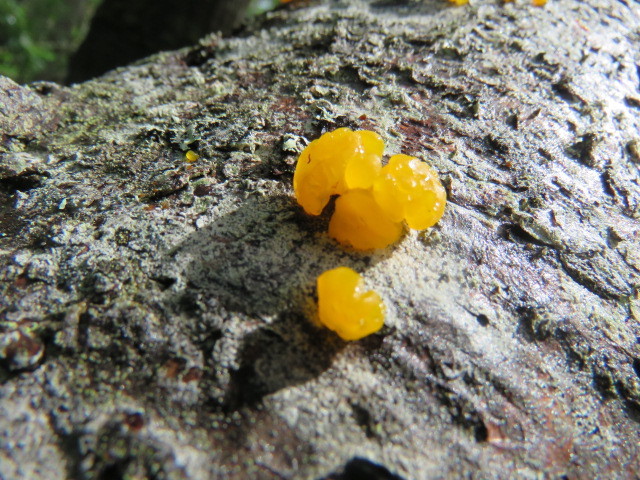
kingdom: Fungi
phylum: Basidiomycota
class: Dacrymycetes
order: Dacrymycetales
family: Dacrymycetaceae
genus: Dacrymyces
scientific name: Dacrymyces chrysospermus
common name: Orange jelly spot
